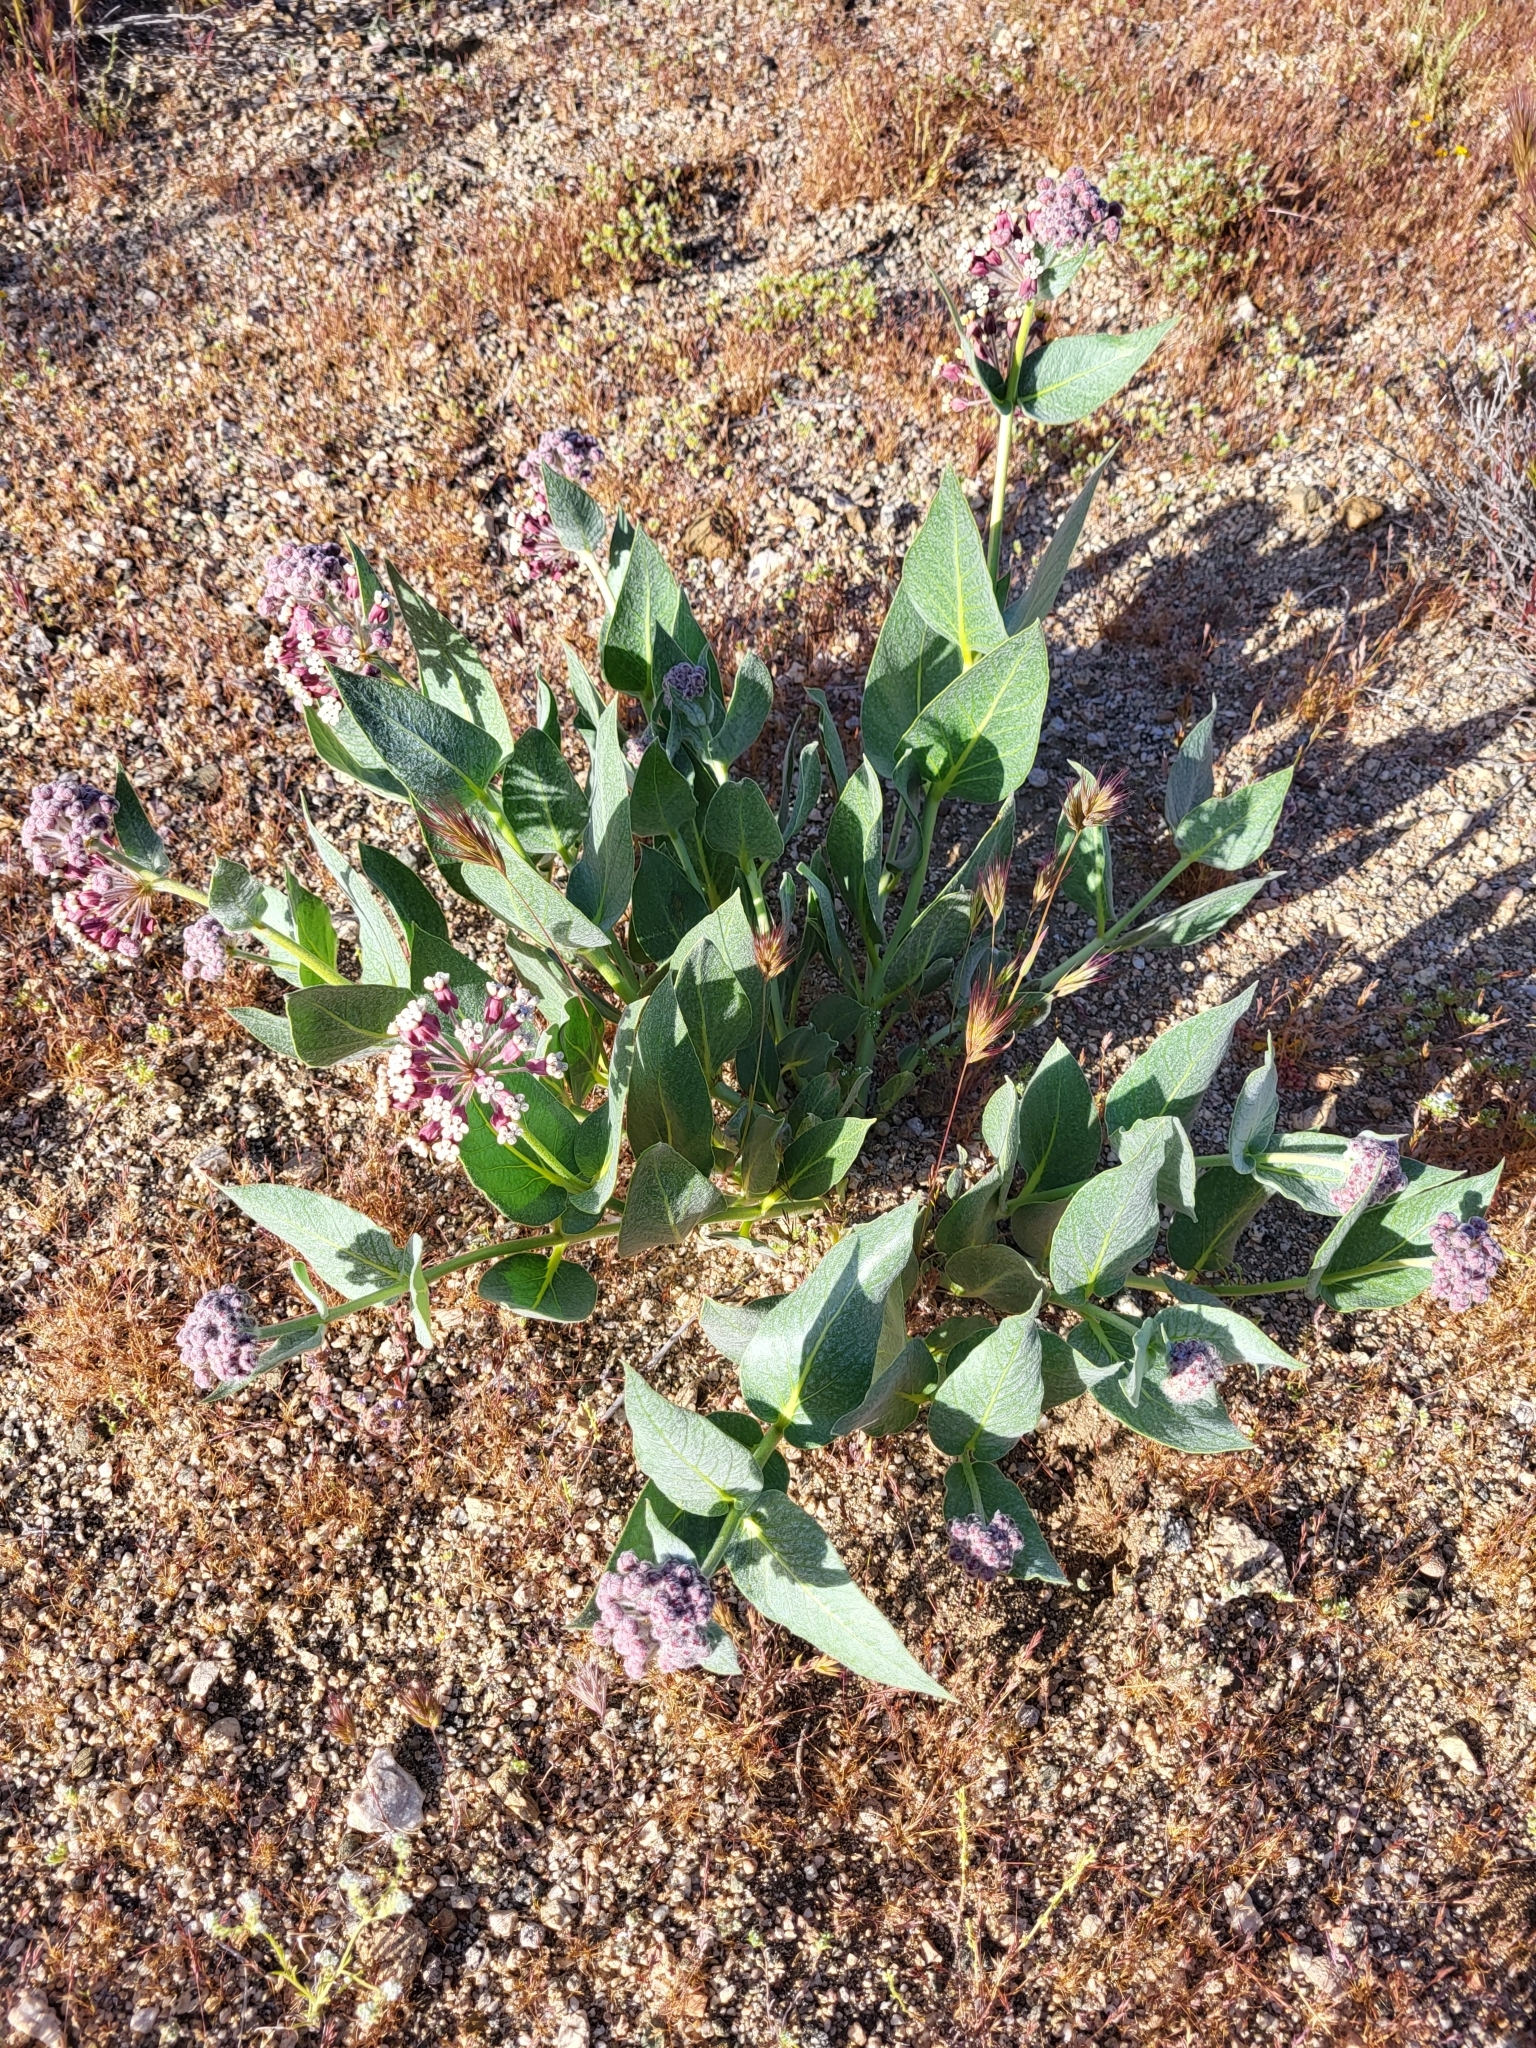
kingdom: Plantae
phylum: Tracheophyta
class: Magnoliopsida
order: Gentianales
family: Apocynaceae
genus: Asclepias
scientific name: Asclepias vestita
